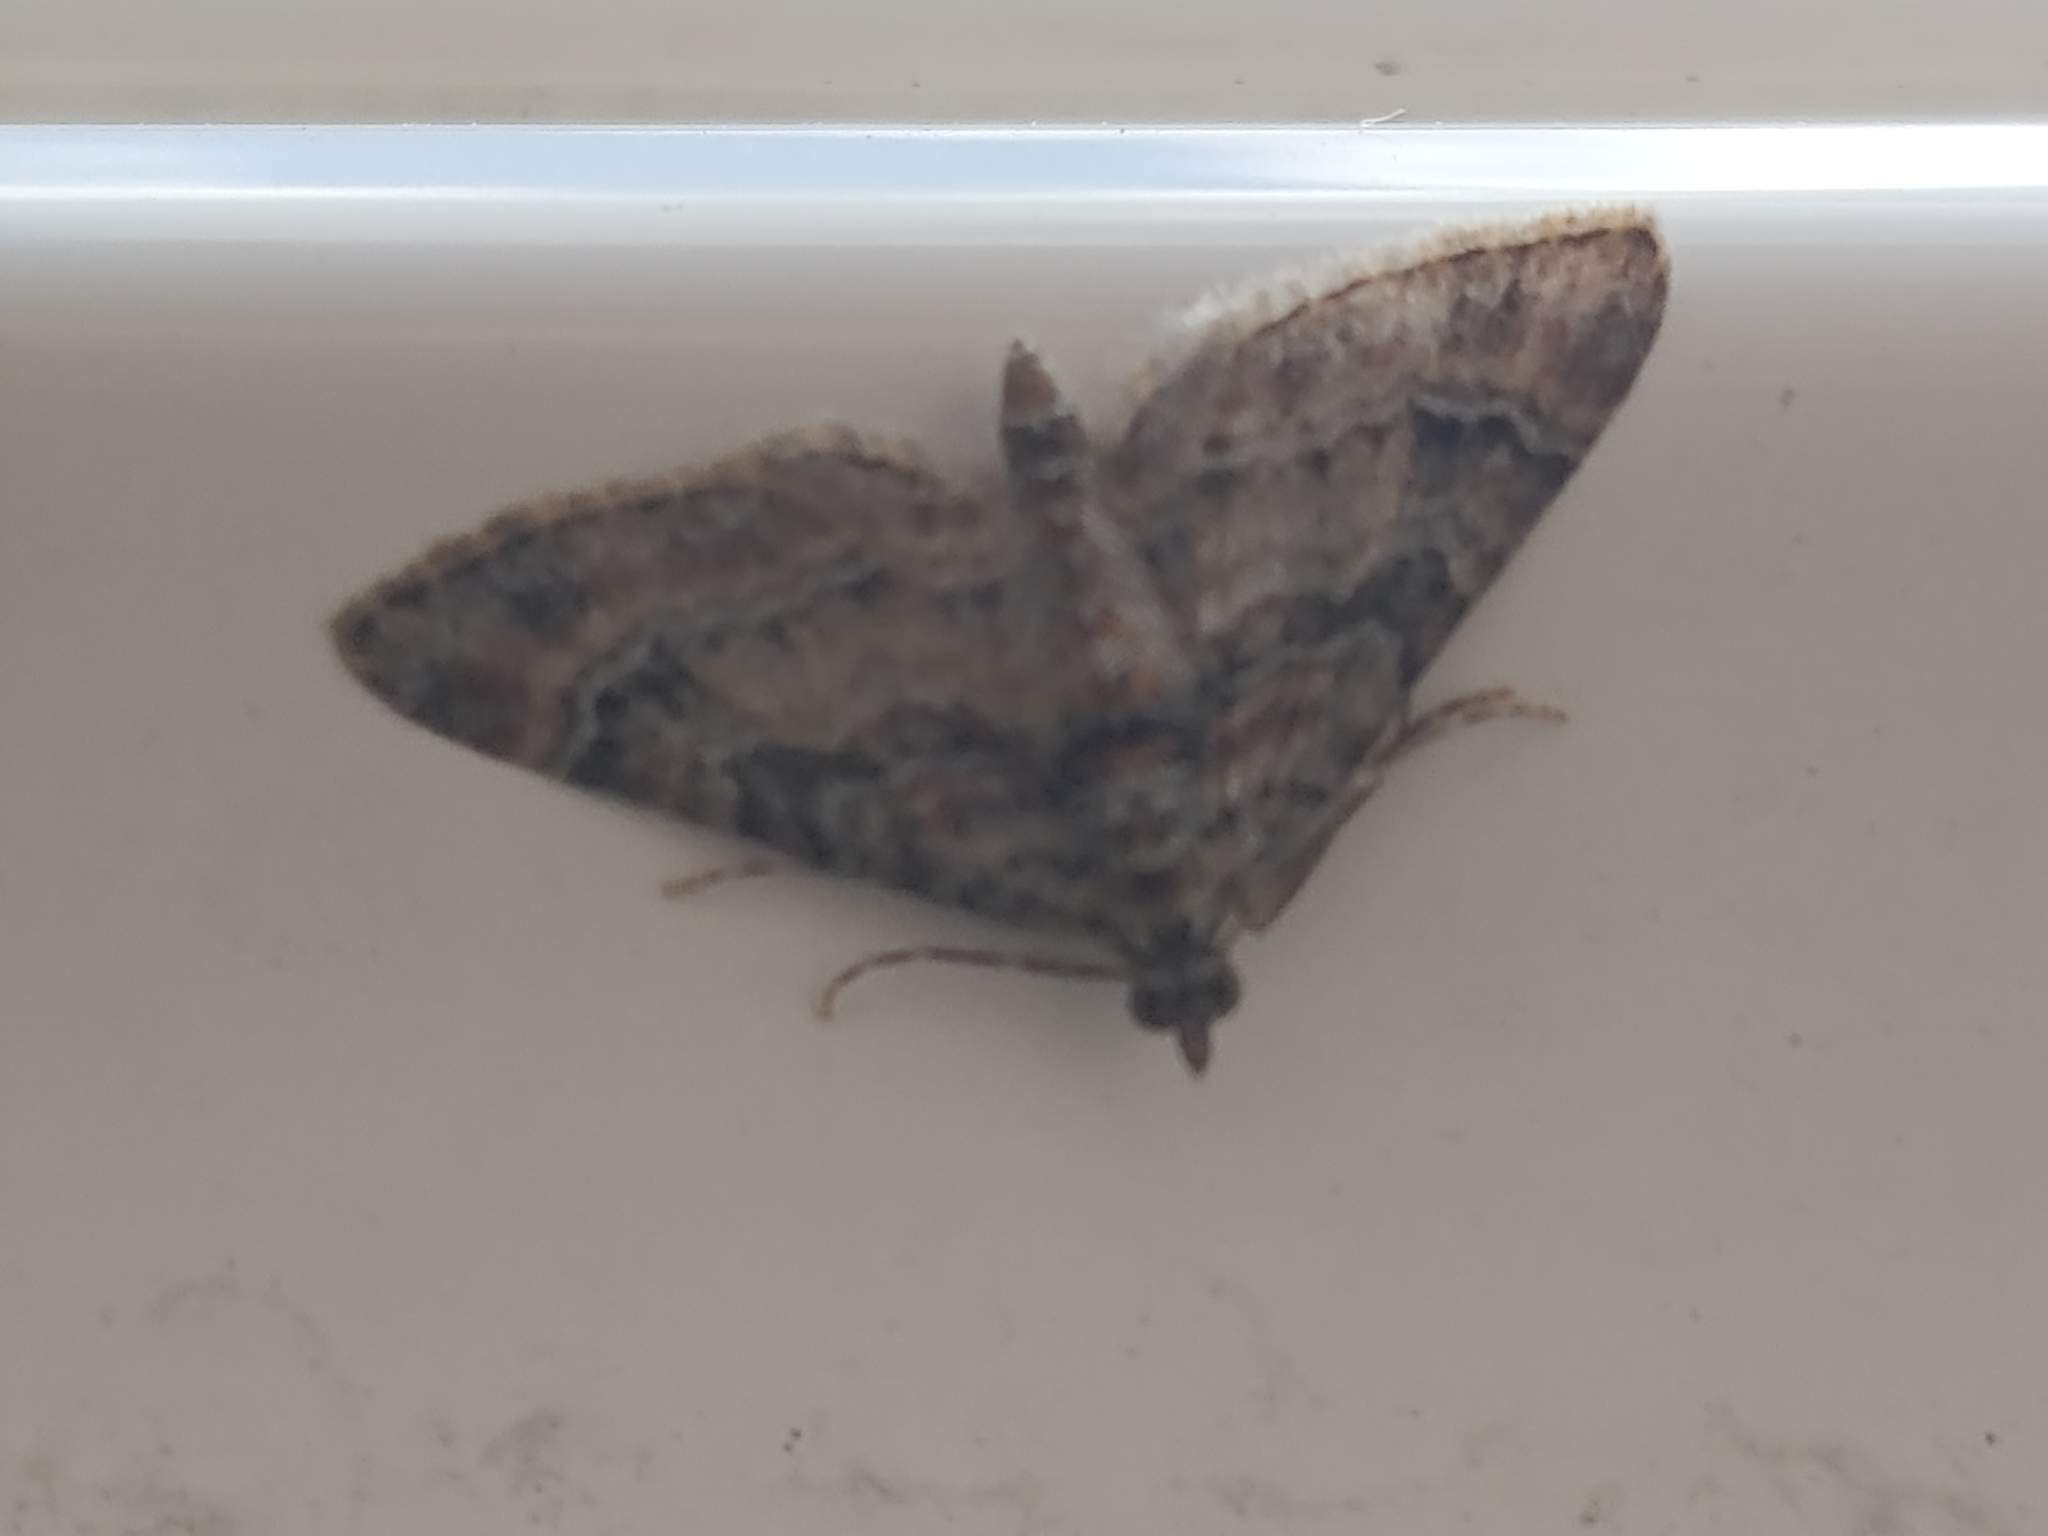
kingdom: Animalia
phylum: Arthropoda
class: Insecta
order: Lepidoptera
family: Geometridae
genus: Gymnoscelis
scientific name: Gymnoscelis rufifasciata
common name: Double-striped pug
